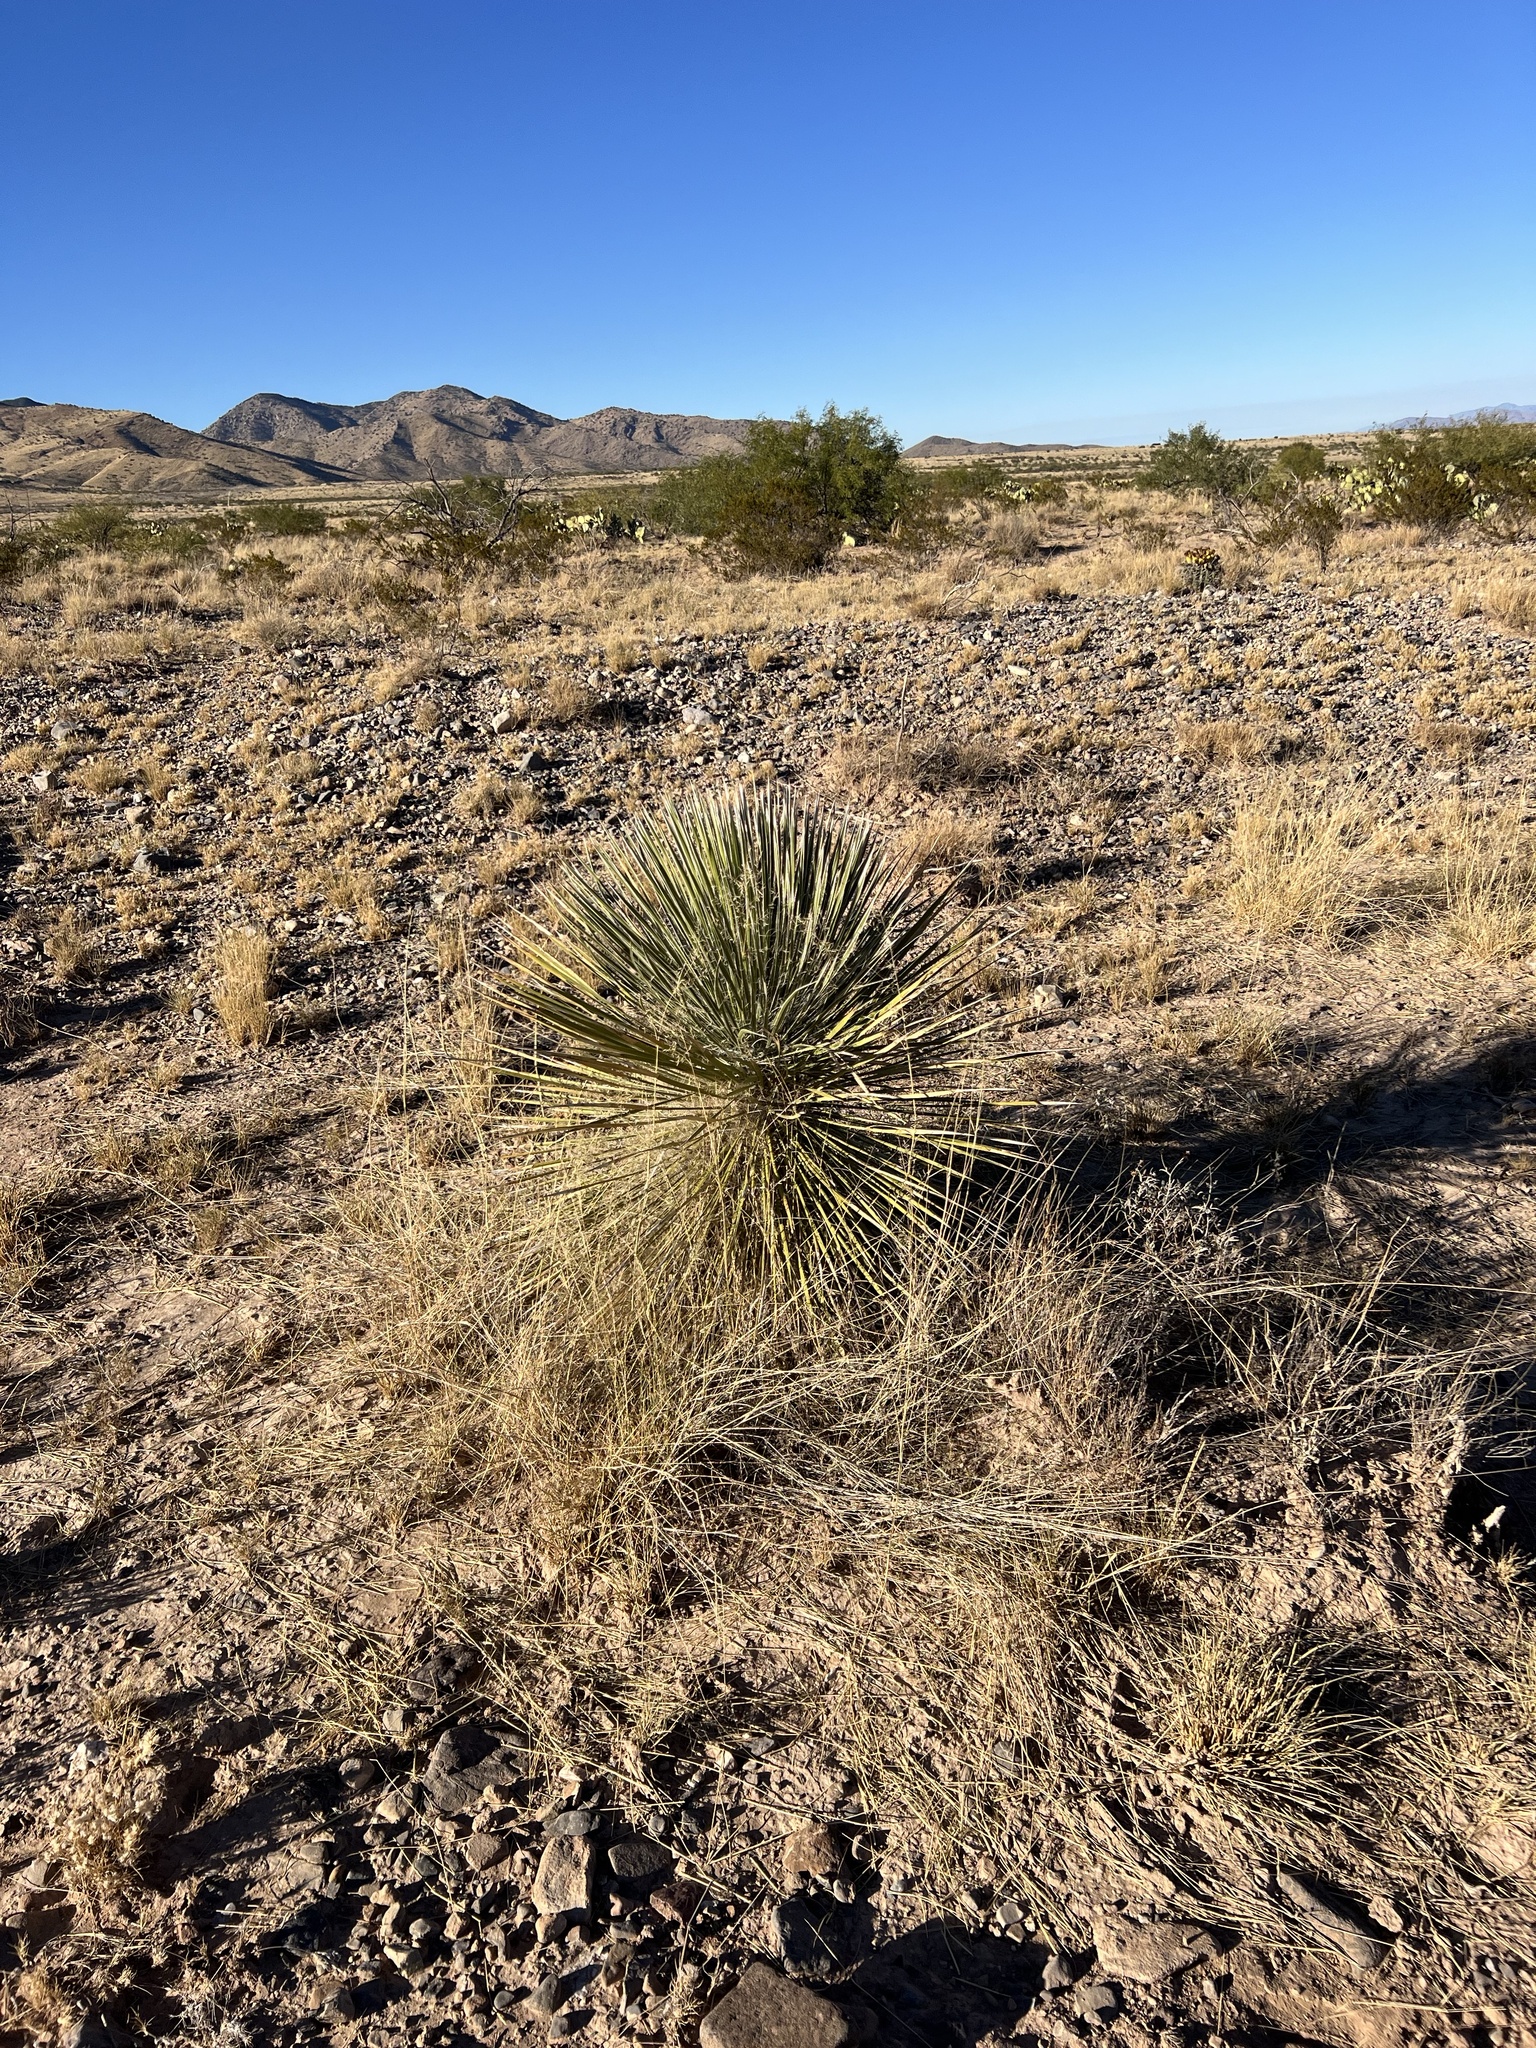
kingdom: Plantae
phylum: Tracheophyta
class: Liliopsida
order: Asparagales
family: Asparagaceae
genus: Yucca
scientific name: Yucca elata
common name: Palmella
